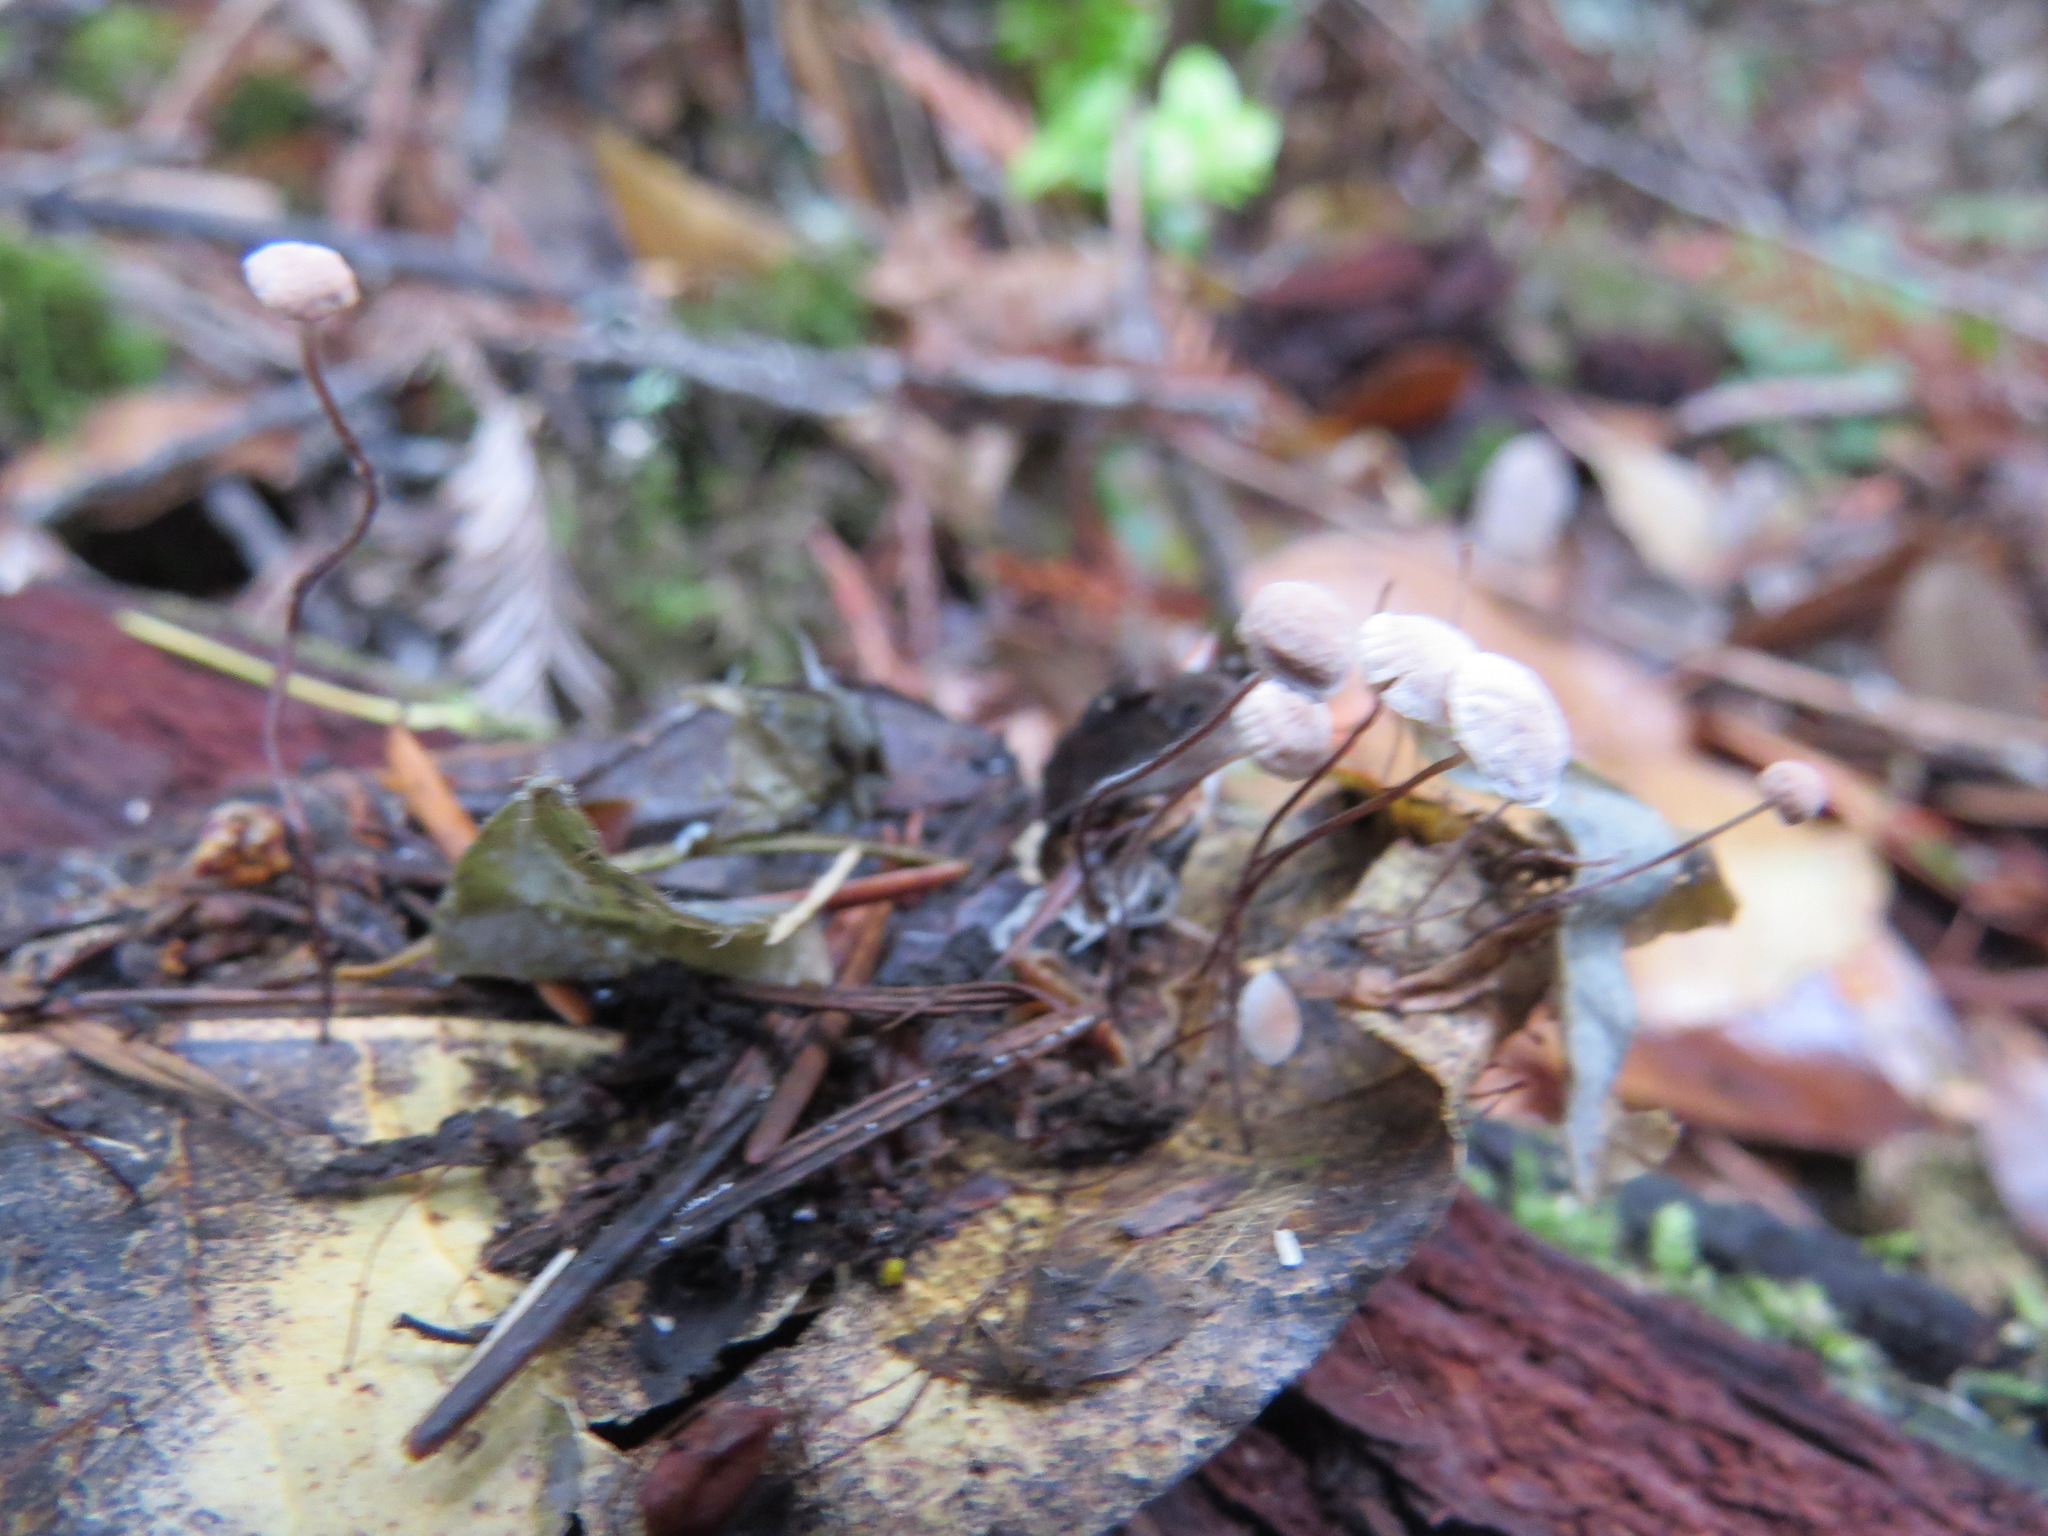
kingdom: Fungi
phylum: Basidiomycota
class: Agaricomycetes
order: Agaricales
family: Omphalotaceae
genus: Collybiopsis
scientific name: Collybiopsis quercophila
